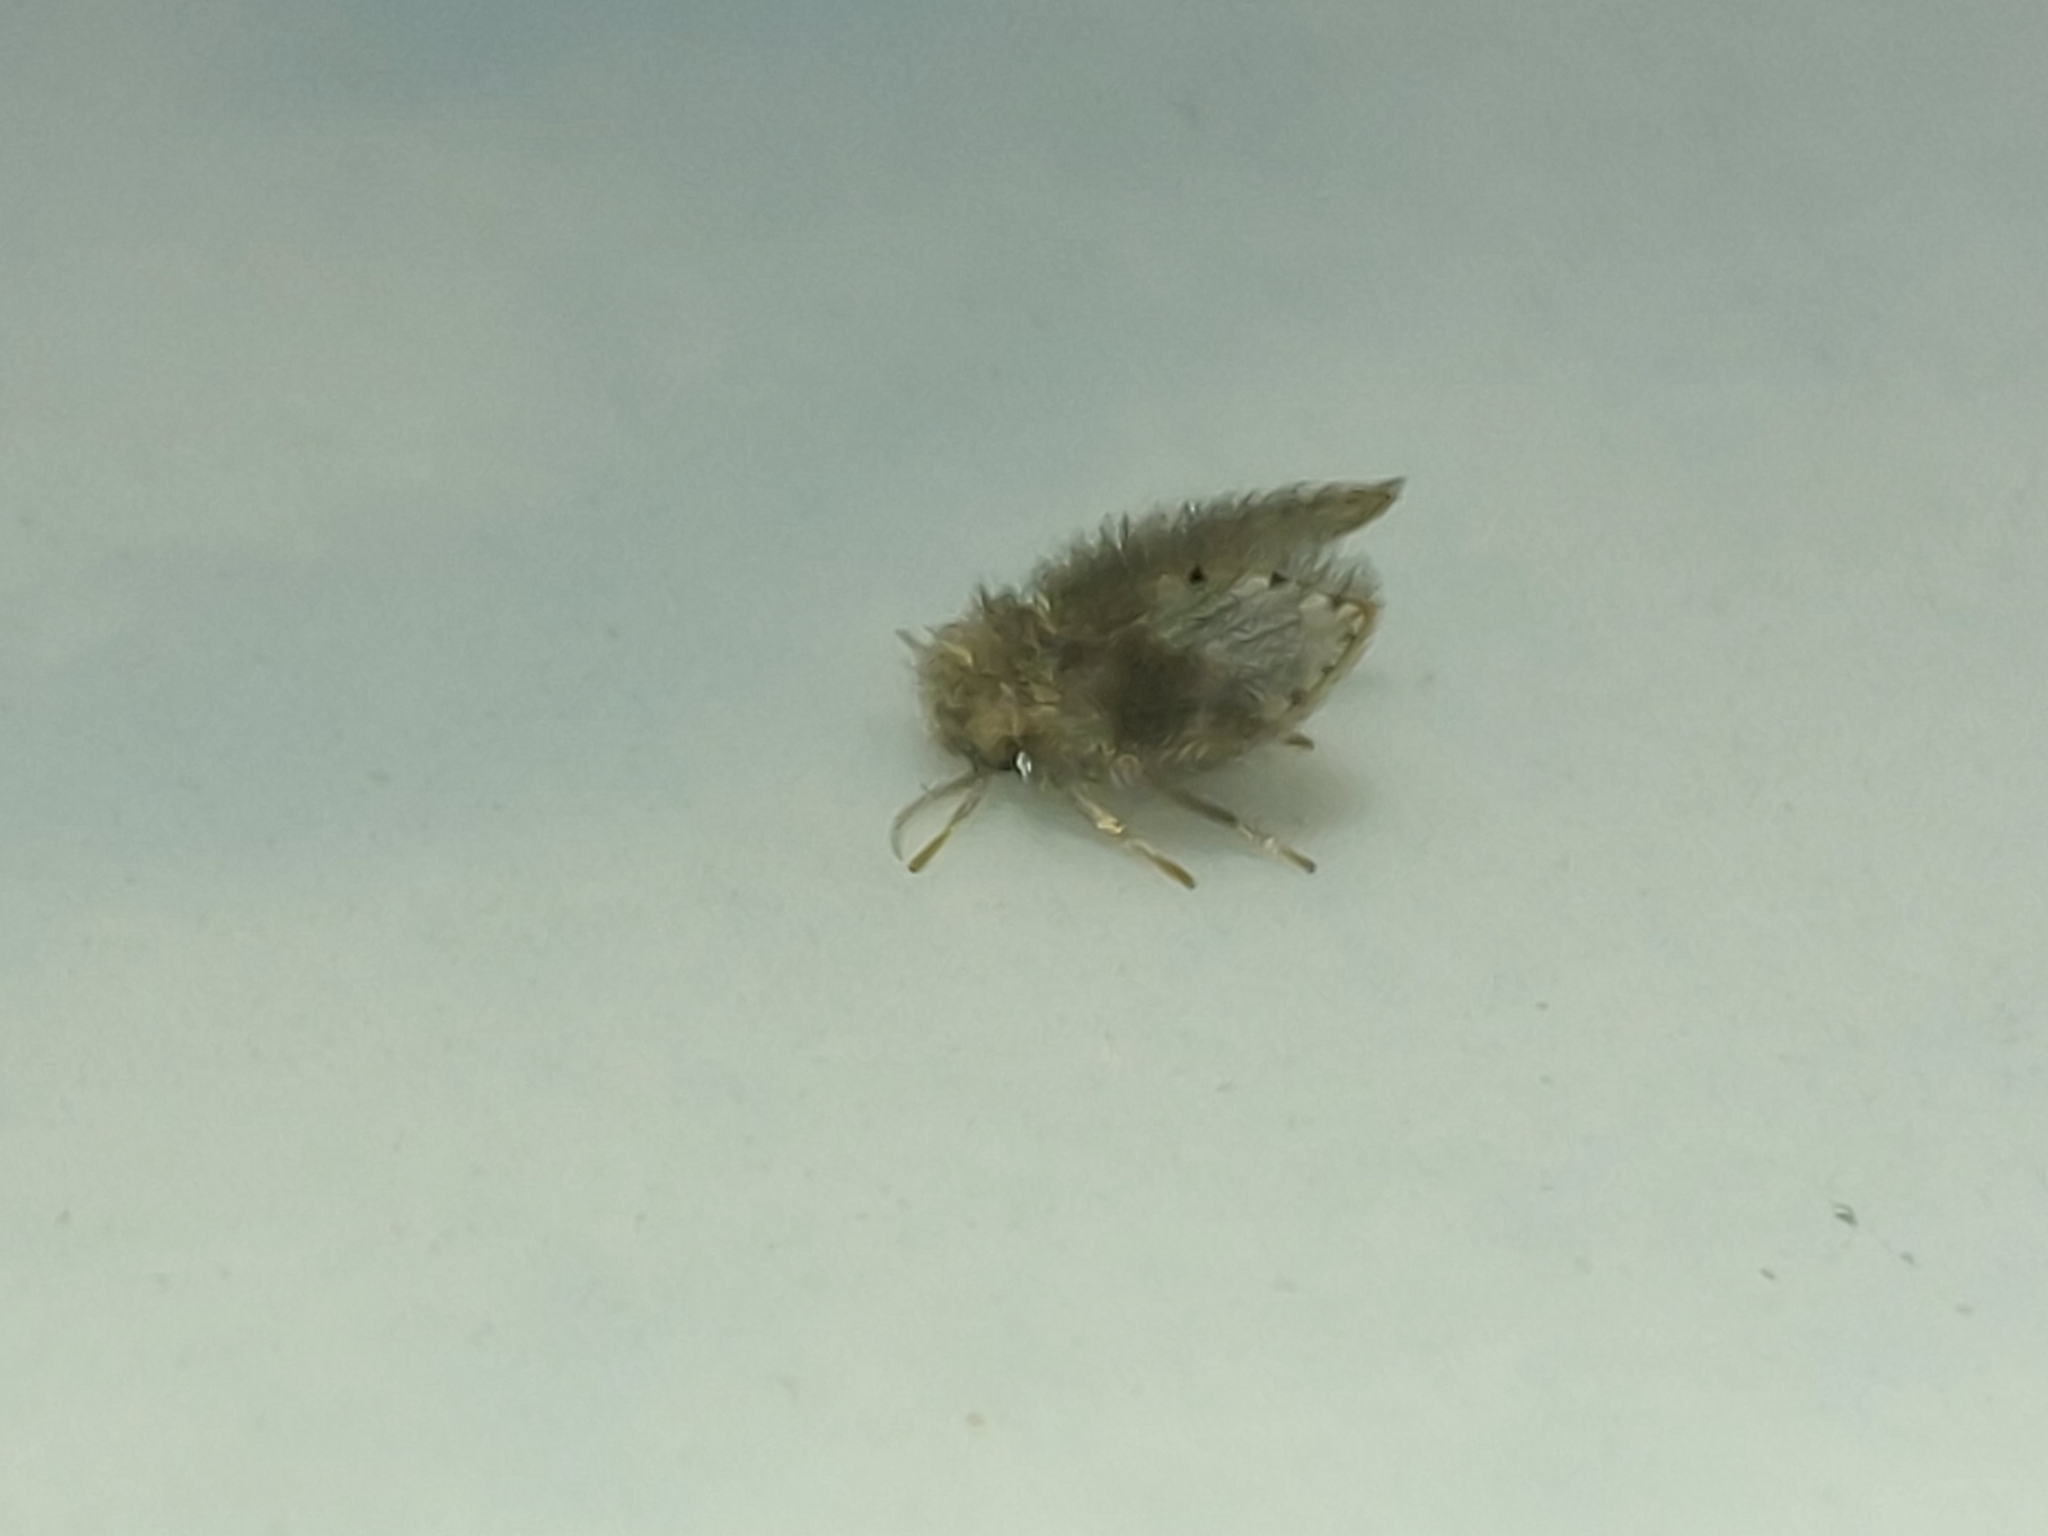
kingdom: Animalia
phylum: Arthropoda
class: Insecta
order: Diptera
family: Psychodidae
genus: Psychoda
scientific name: Psychoda alternata
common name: Moth fly
